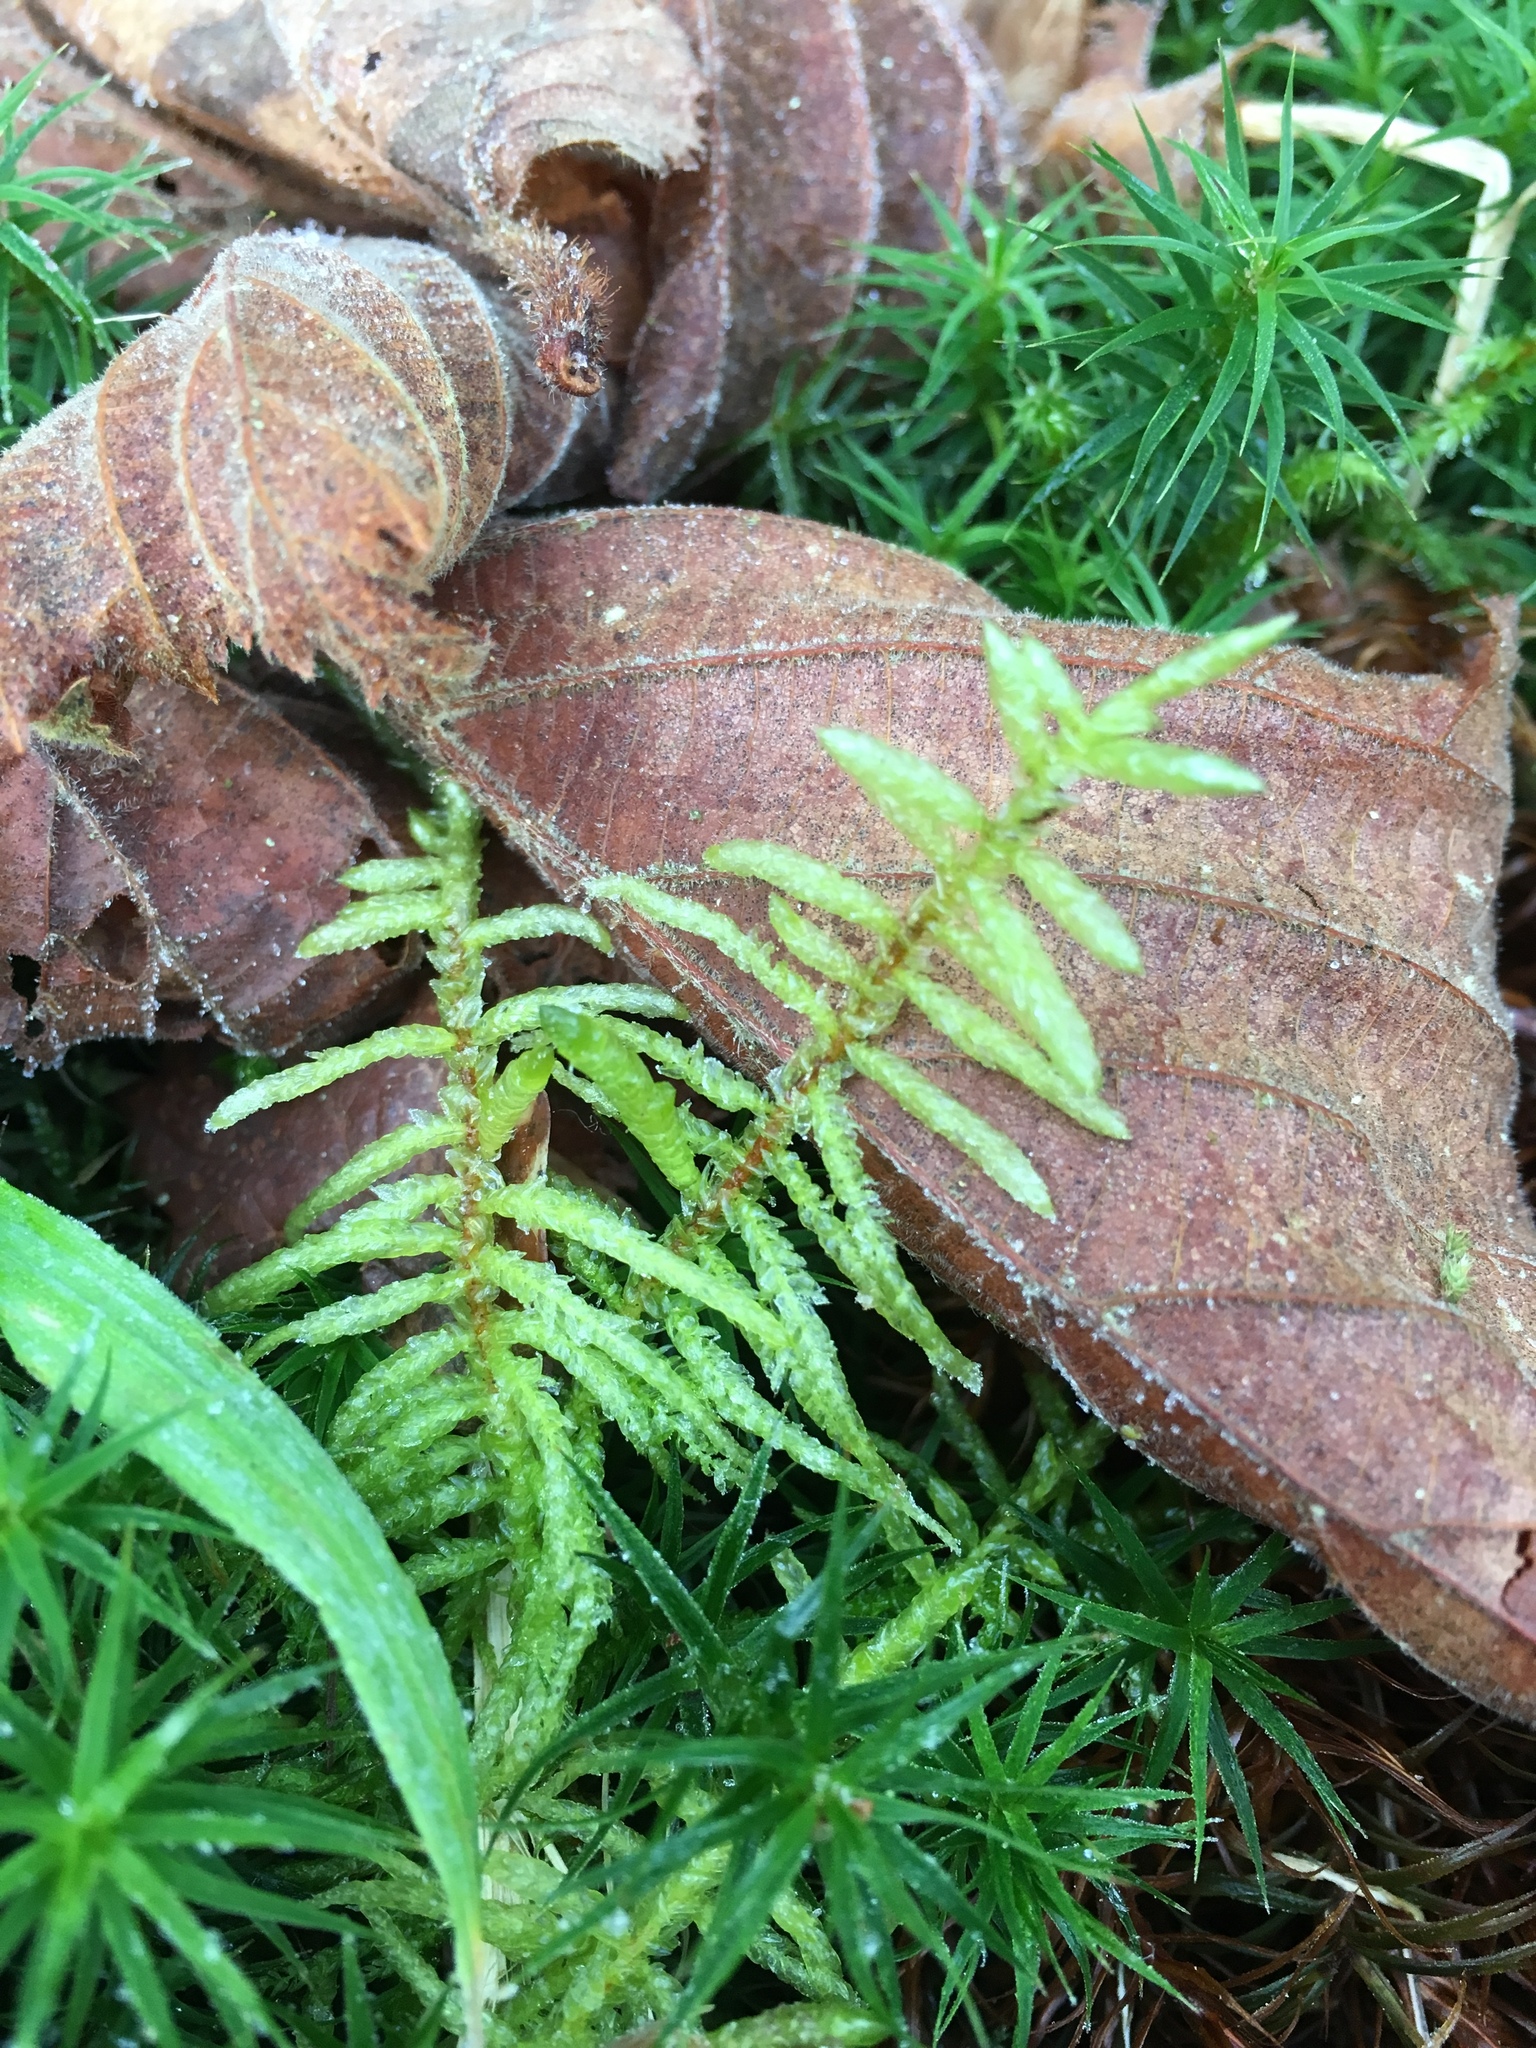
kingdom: Plantae
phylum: Bryophyta
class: Bryopsida
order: Hypnales
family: Hylocomiaceae
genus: Pleurozium
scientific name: Pleurozium schreberi
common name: Red-stemmed feather moss
